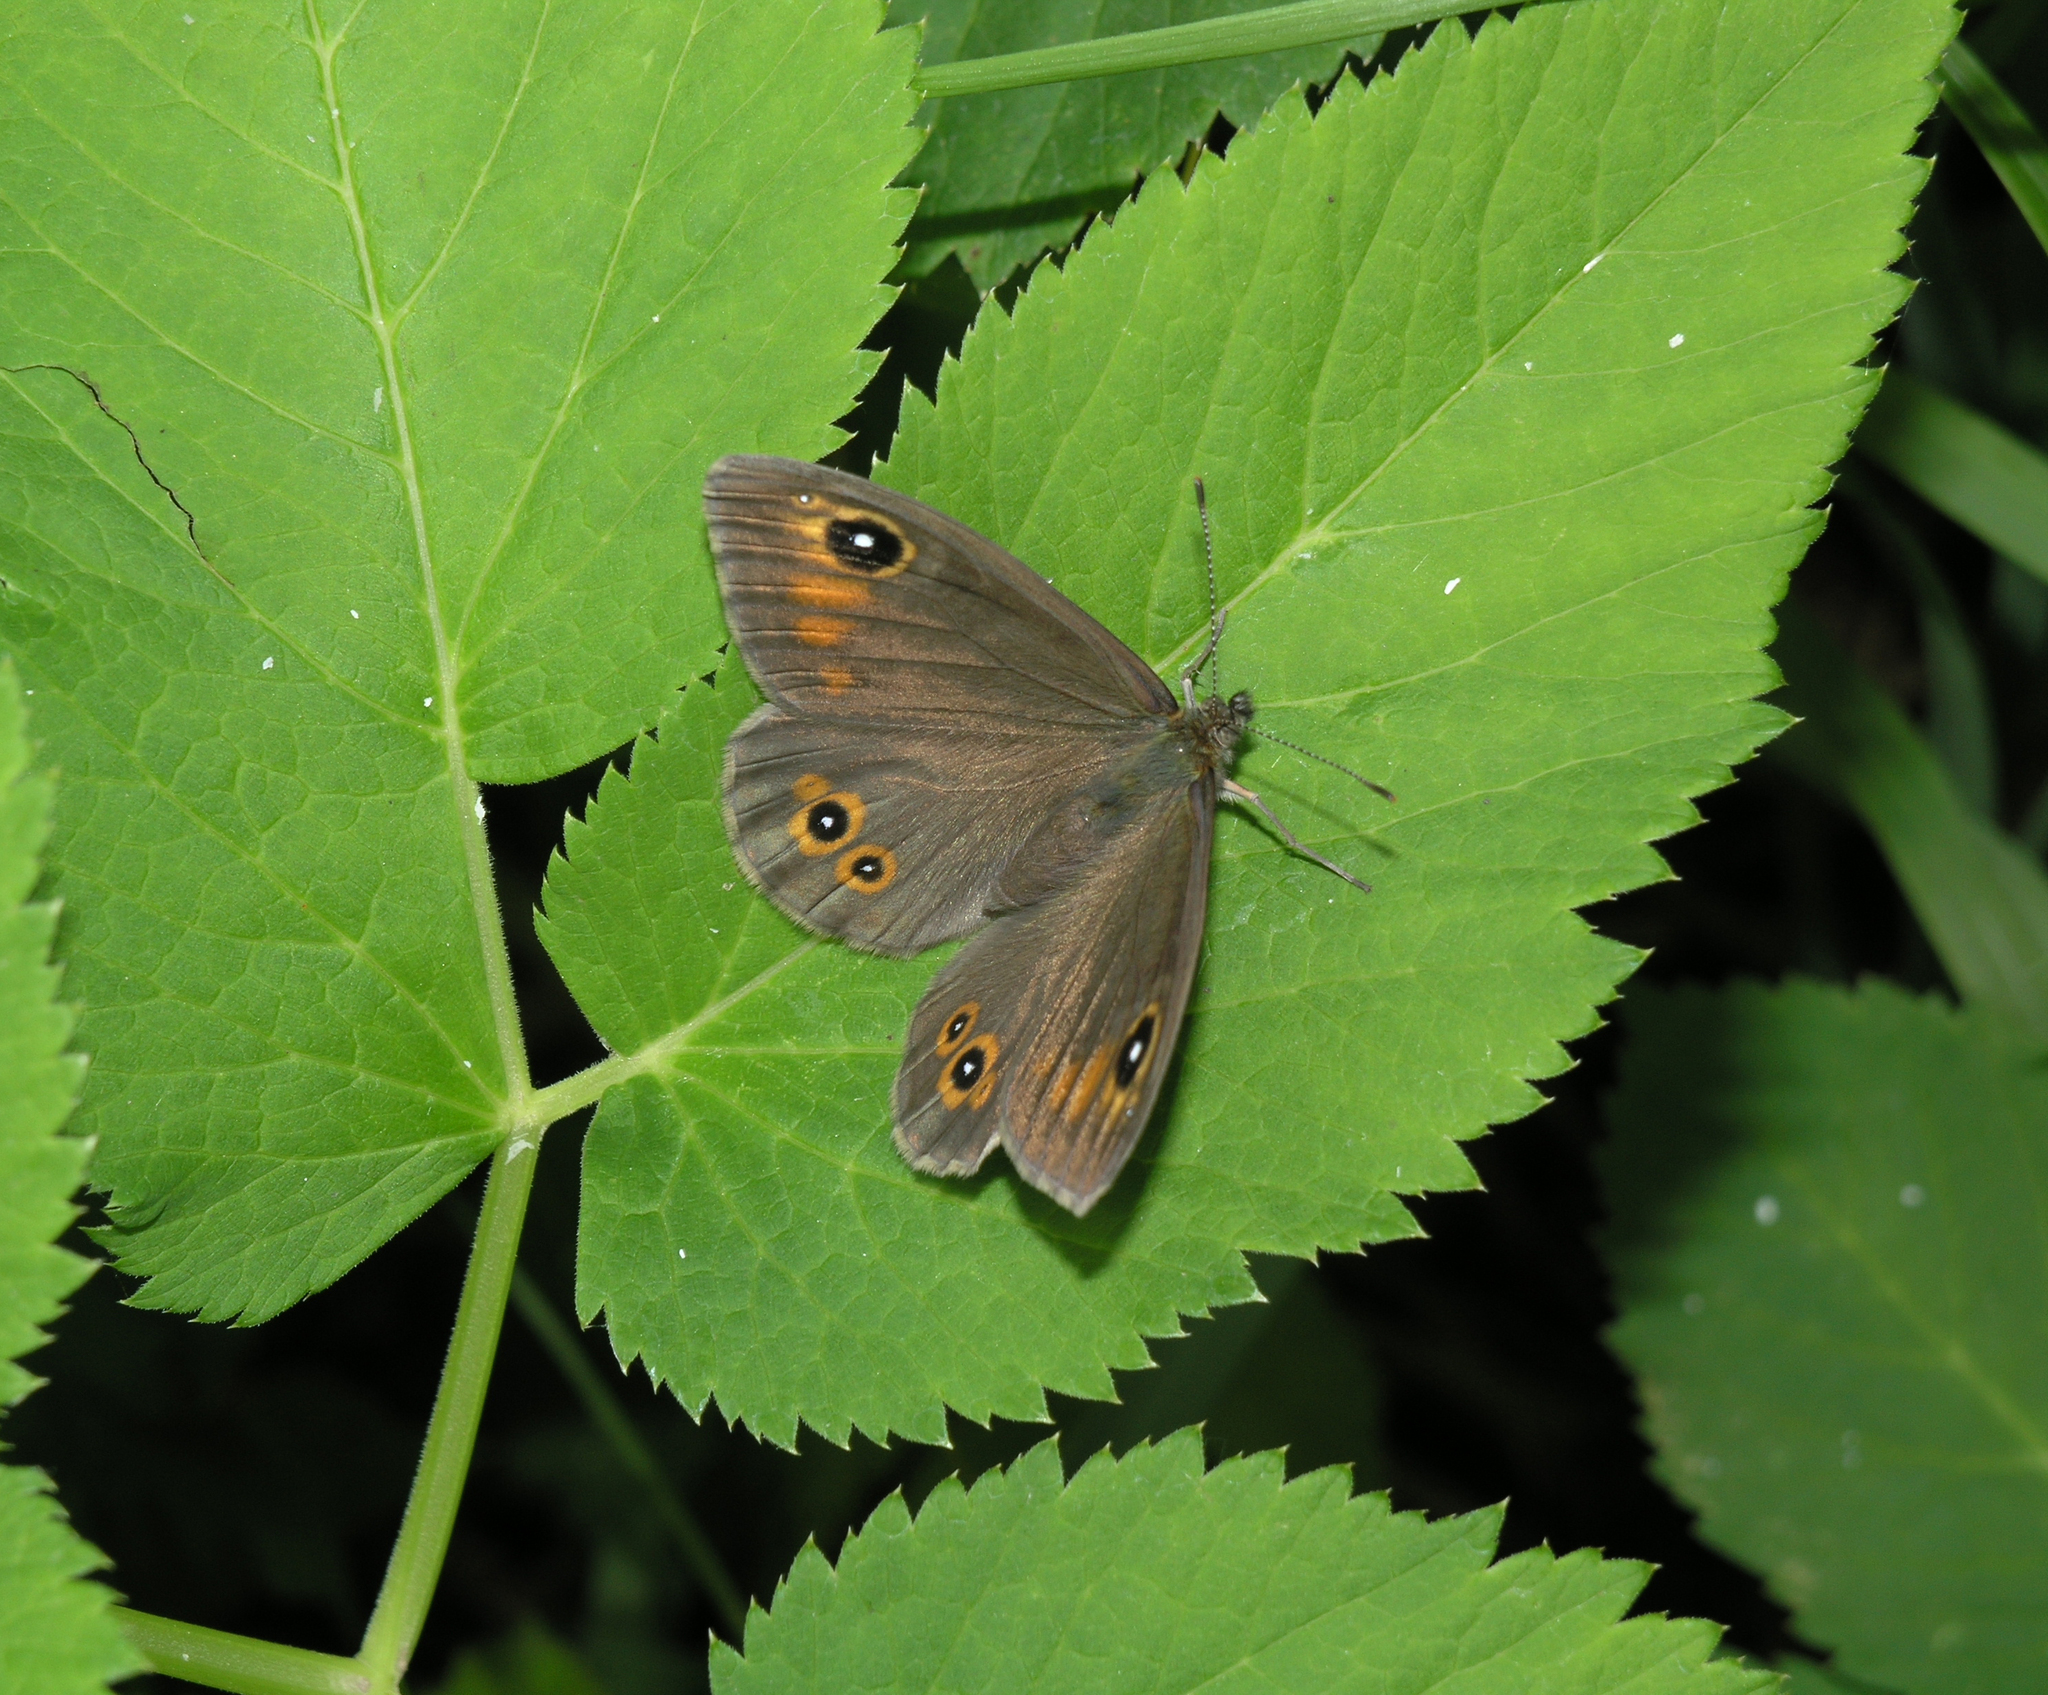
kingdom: Plantae
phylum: Tracheophyta
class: Magnoliopsida
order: Apiales
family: Apiaceae
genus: Aegopodium
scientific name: Aegopodium podagraria
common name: Ground-elder
